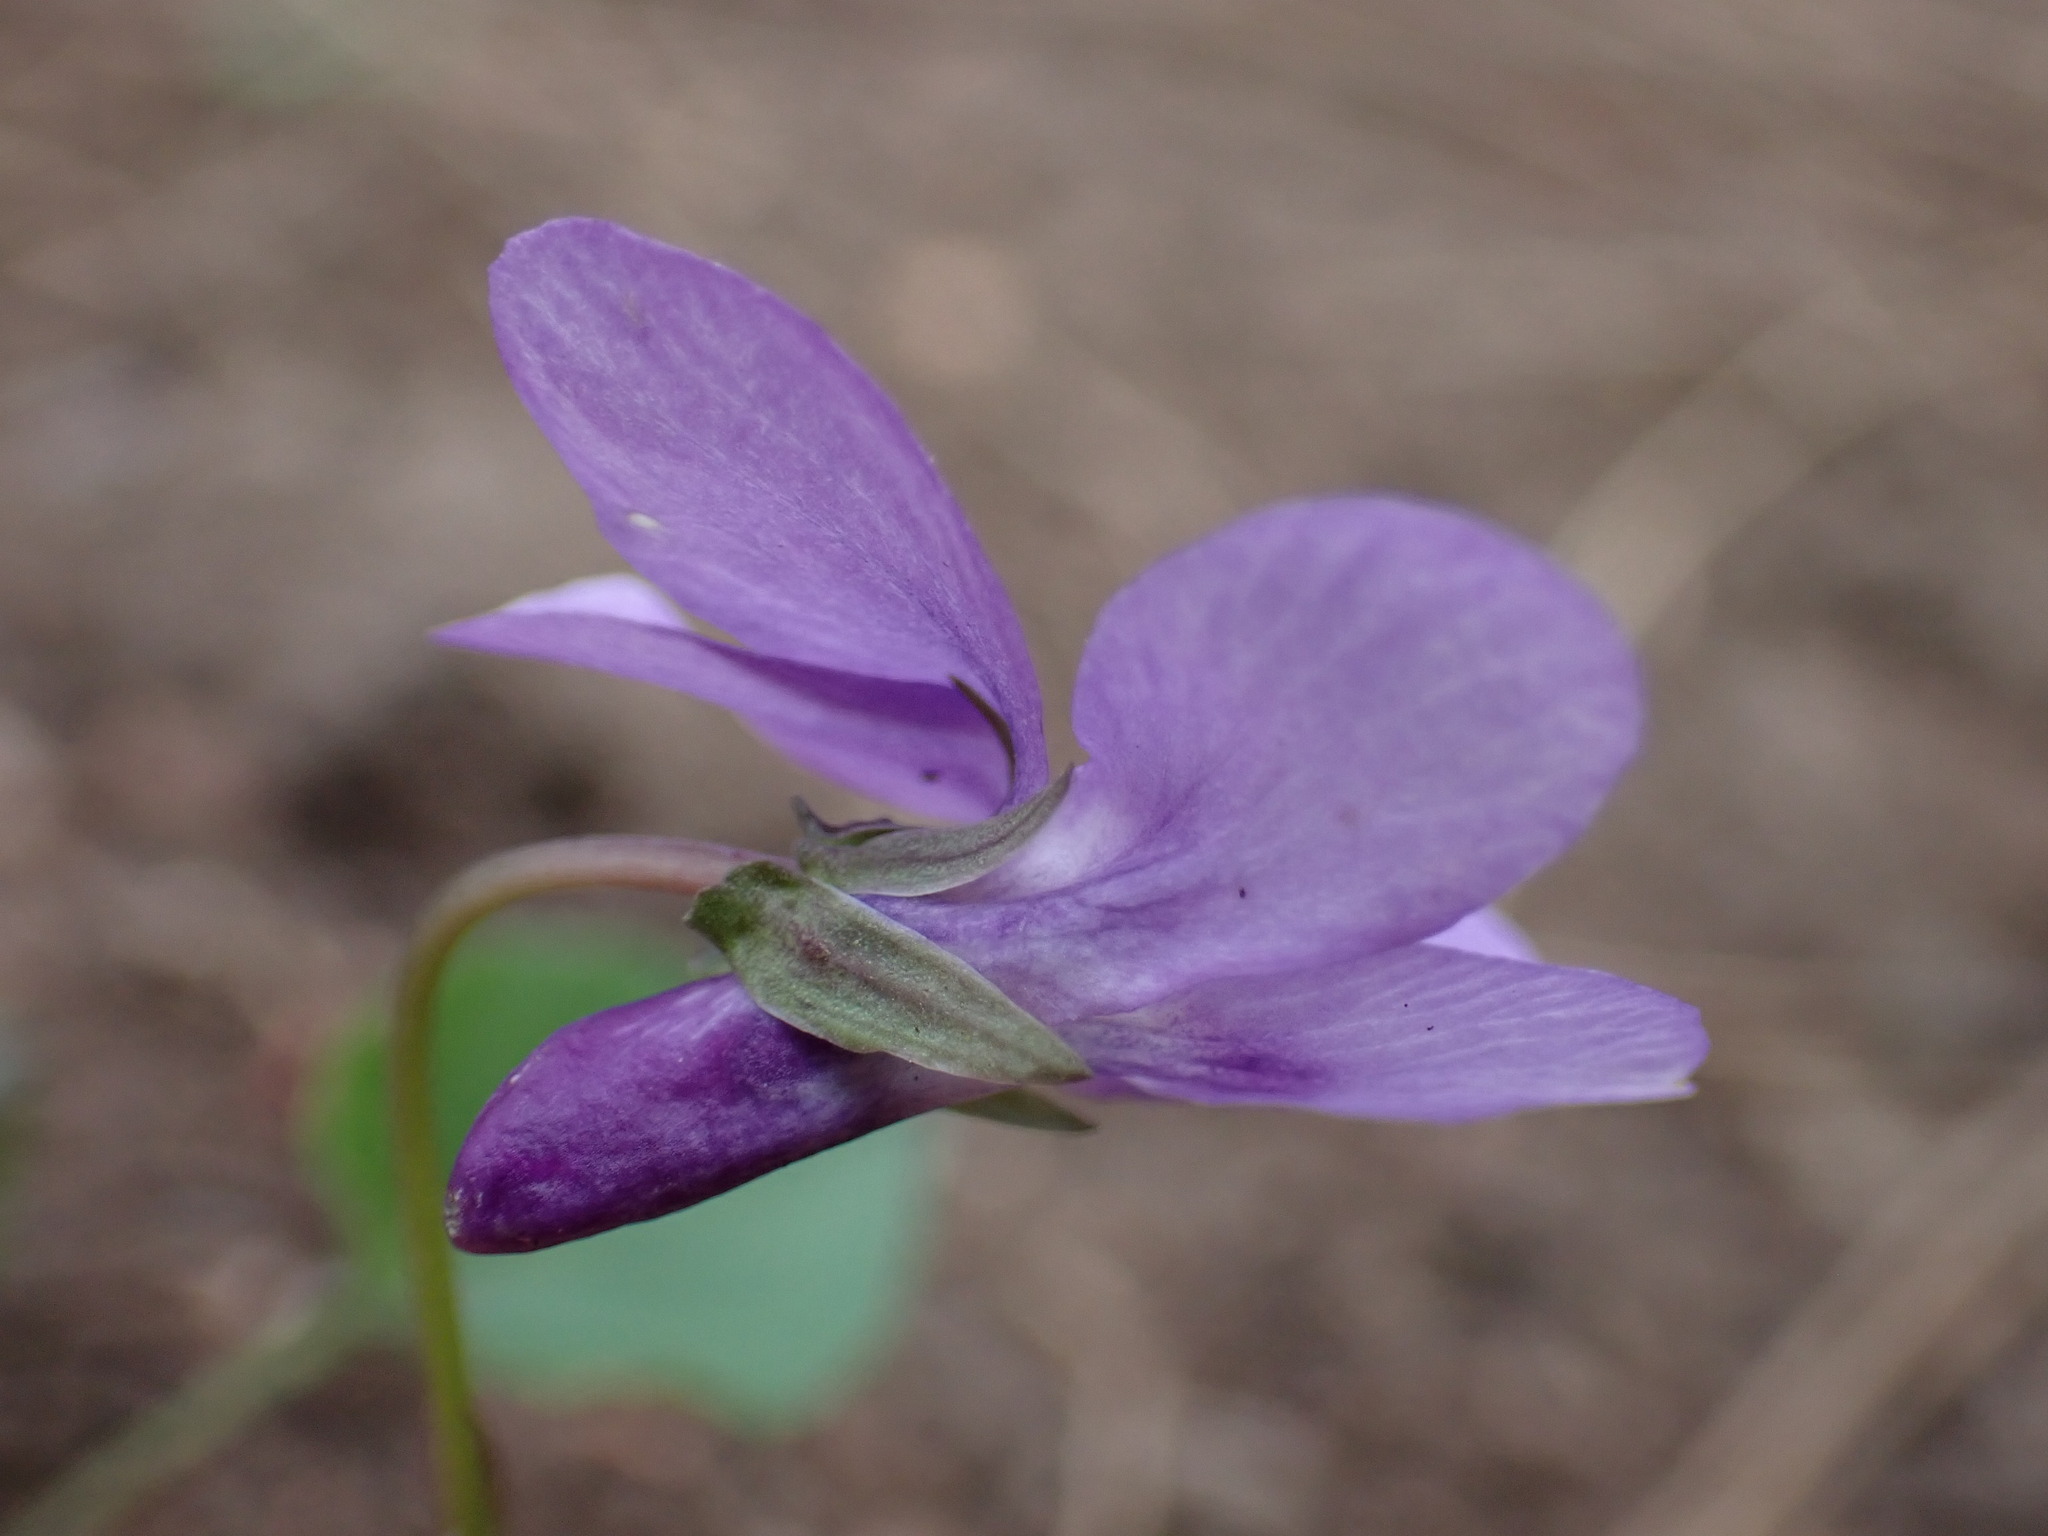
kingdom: Plantae
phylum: Tracheophyta
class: Magnoliopsida
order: Malpighiales
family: Violaceae
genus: Viola
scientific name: Viola reichenbachiana
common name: Early dog-violet
